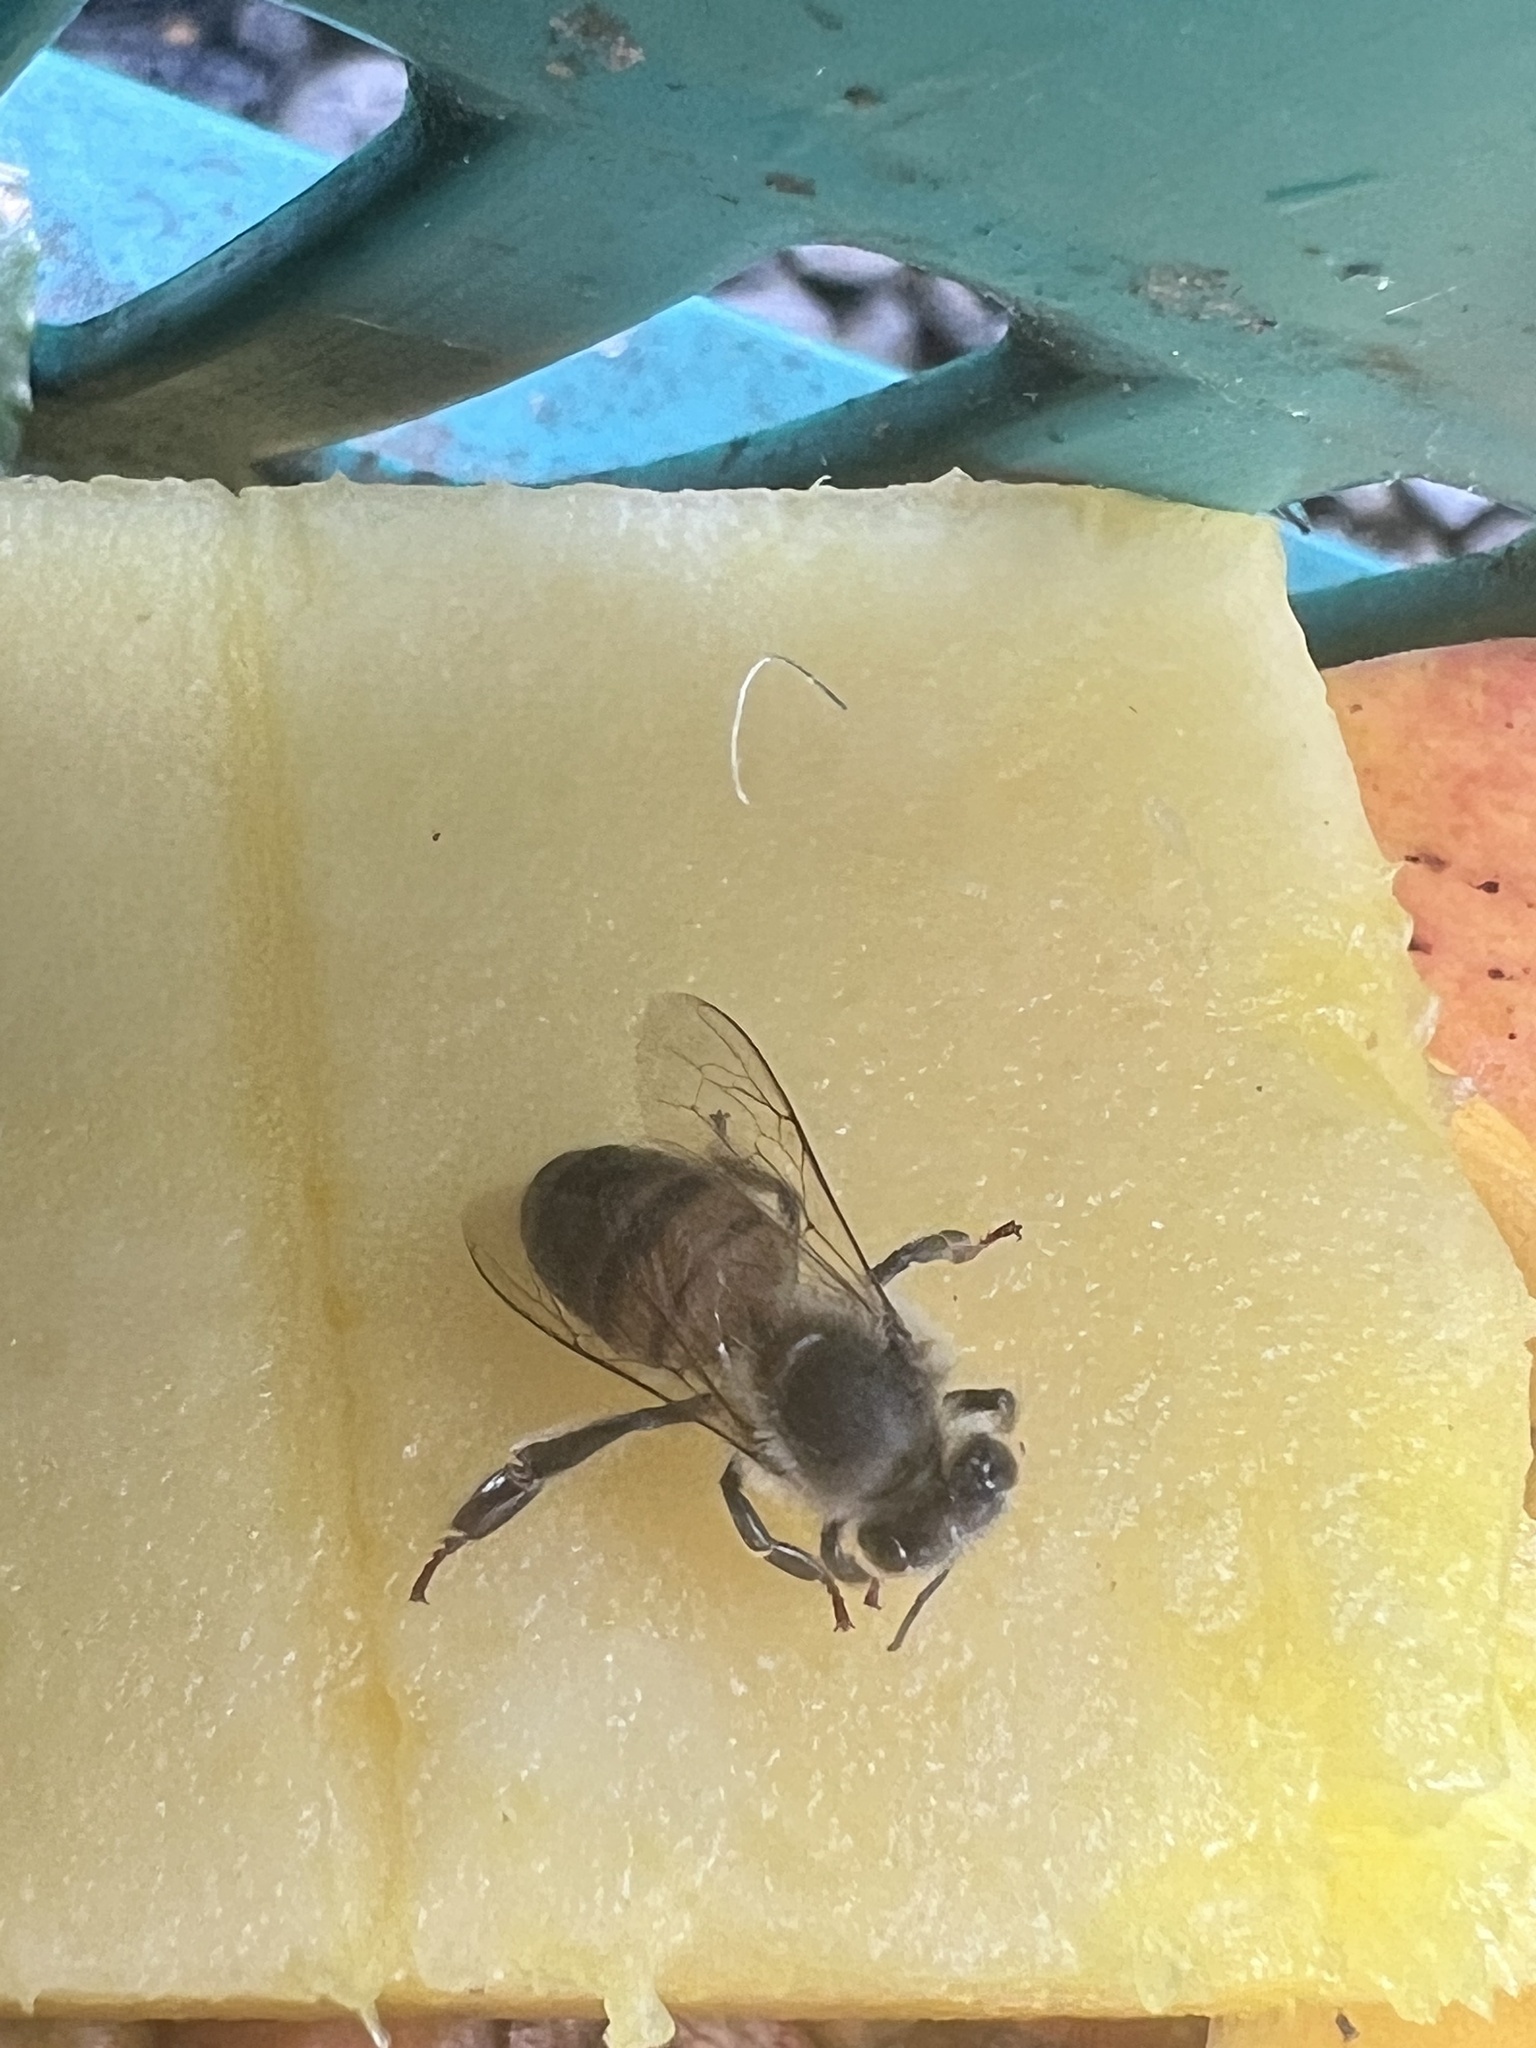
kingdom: Animalia
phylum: Arthropoda
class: Insecta
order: Hymenoptera
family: Apidae
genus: Apis
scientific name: Apis mellifera
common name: Honey bee
